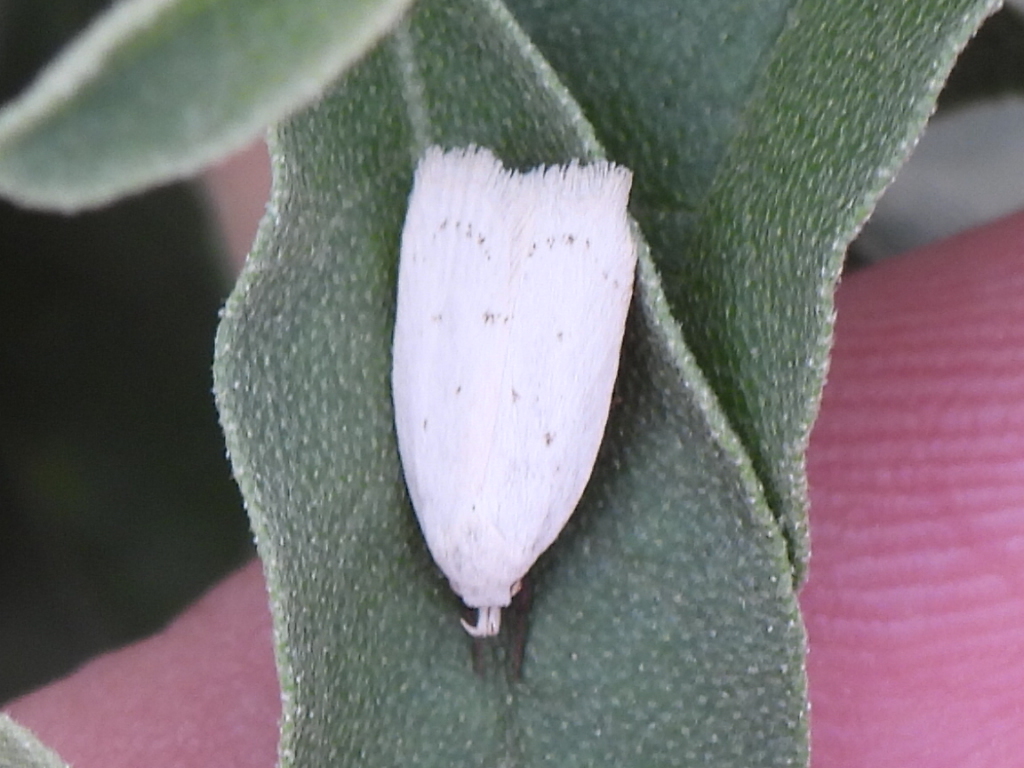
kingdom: Animalia
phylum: Arthropoda
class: Insecta
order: Lepidoptera
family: Oecophoridae
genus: Inga
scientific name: Inga cretacea
